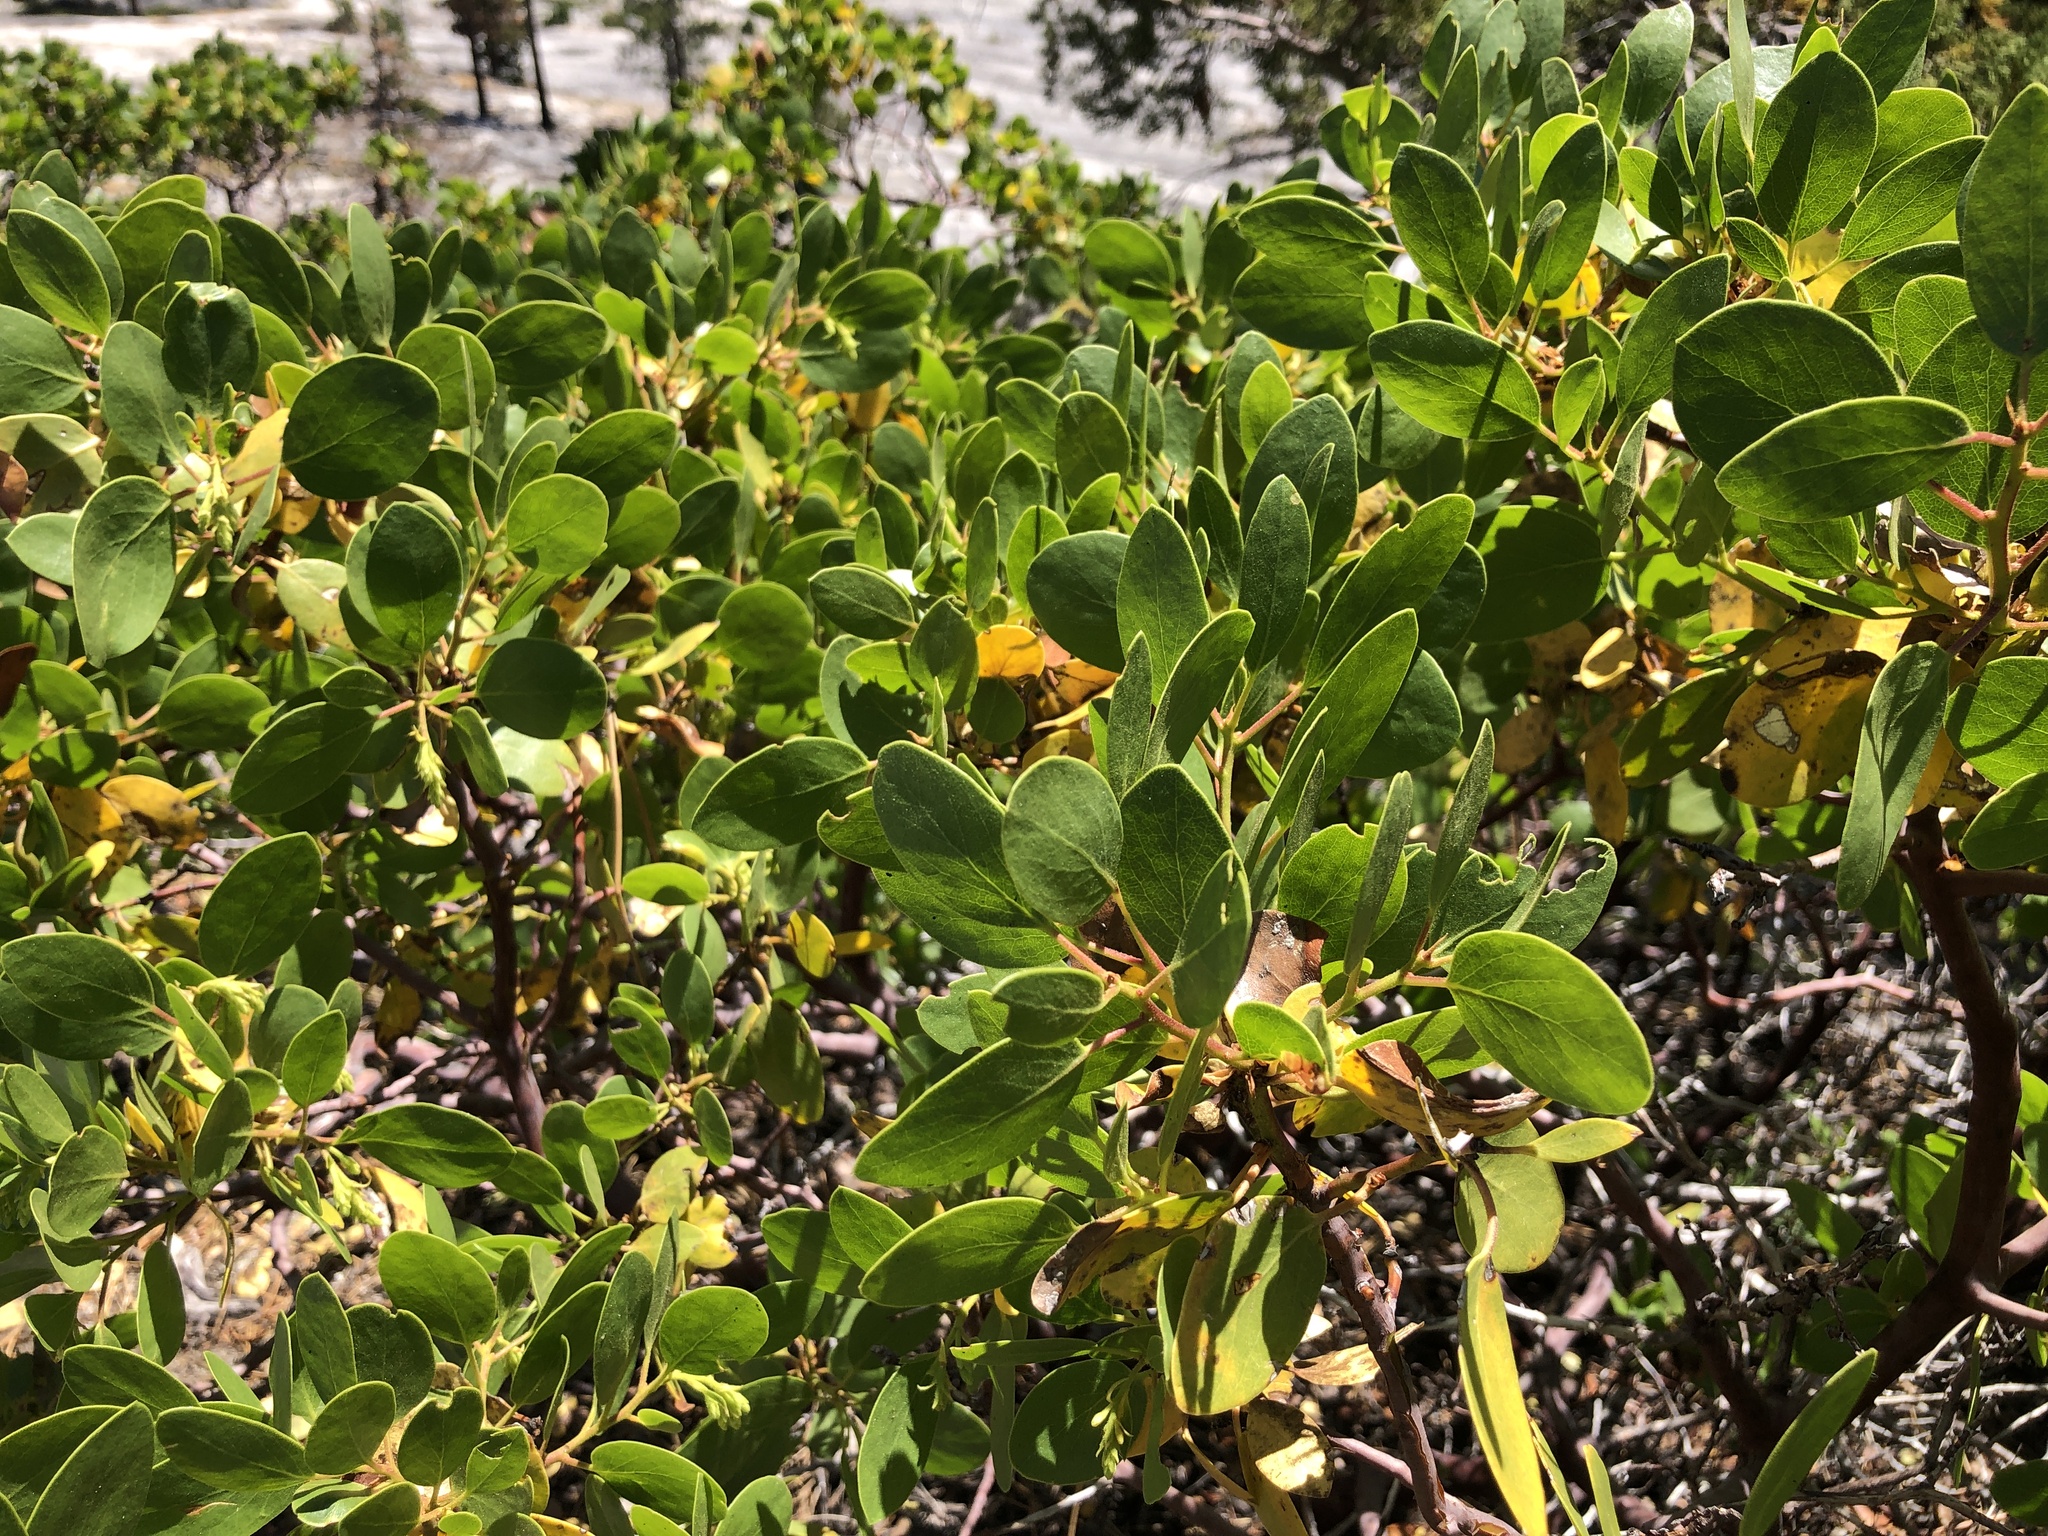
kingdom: Plantae
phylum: Tracheophyta
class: Magnoliopsida
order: Ericales
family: Ericaceae
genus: Arctostaphylos
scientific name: Arctostaphylos patula
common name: Green-leaf manzanita
